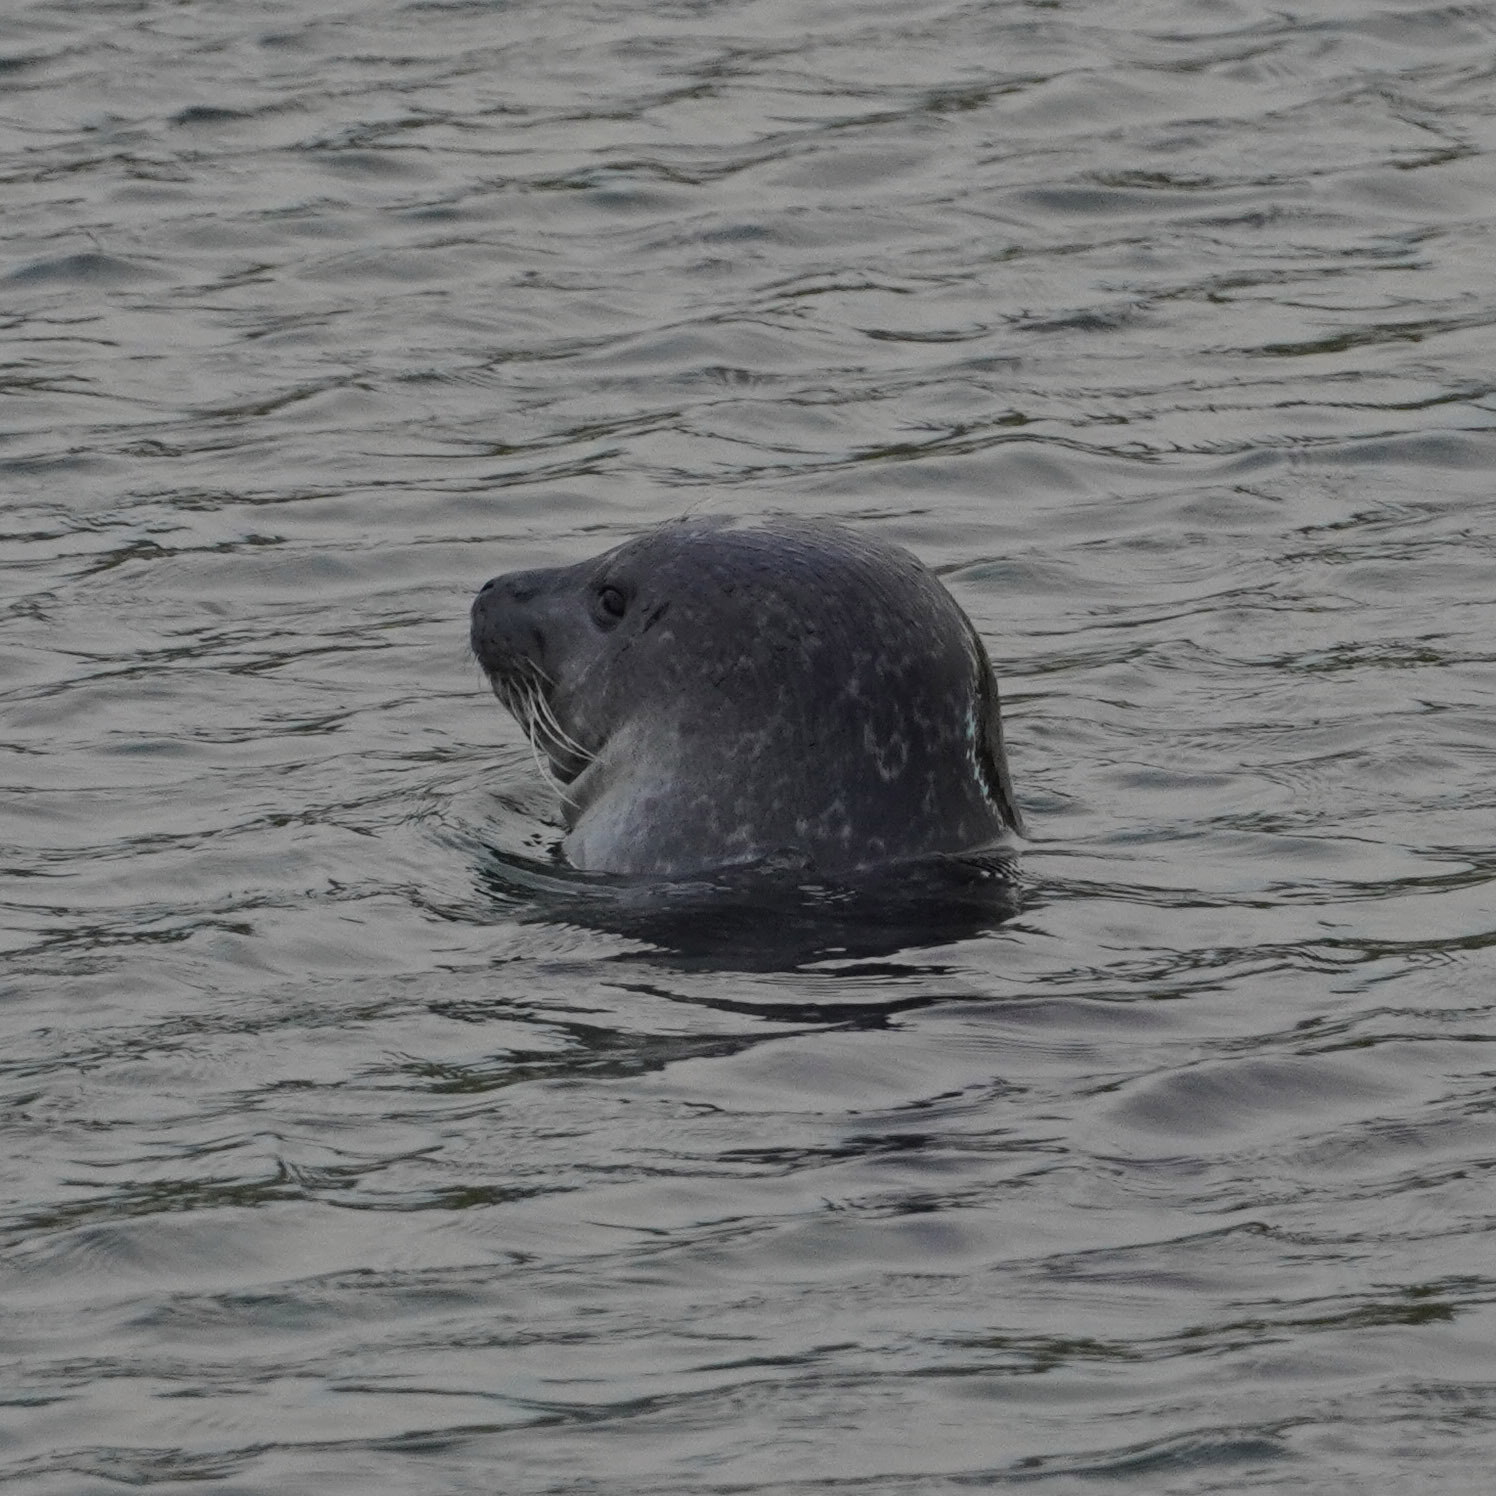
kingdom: Animalia
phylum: Chordata
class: Mammalia
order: Carnivora
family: Phocidae
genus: Phoca
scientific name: Phoca vitulina
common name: Harbor seal
